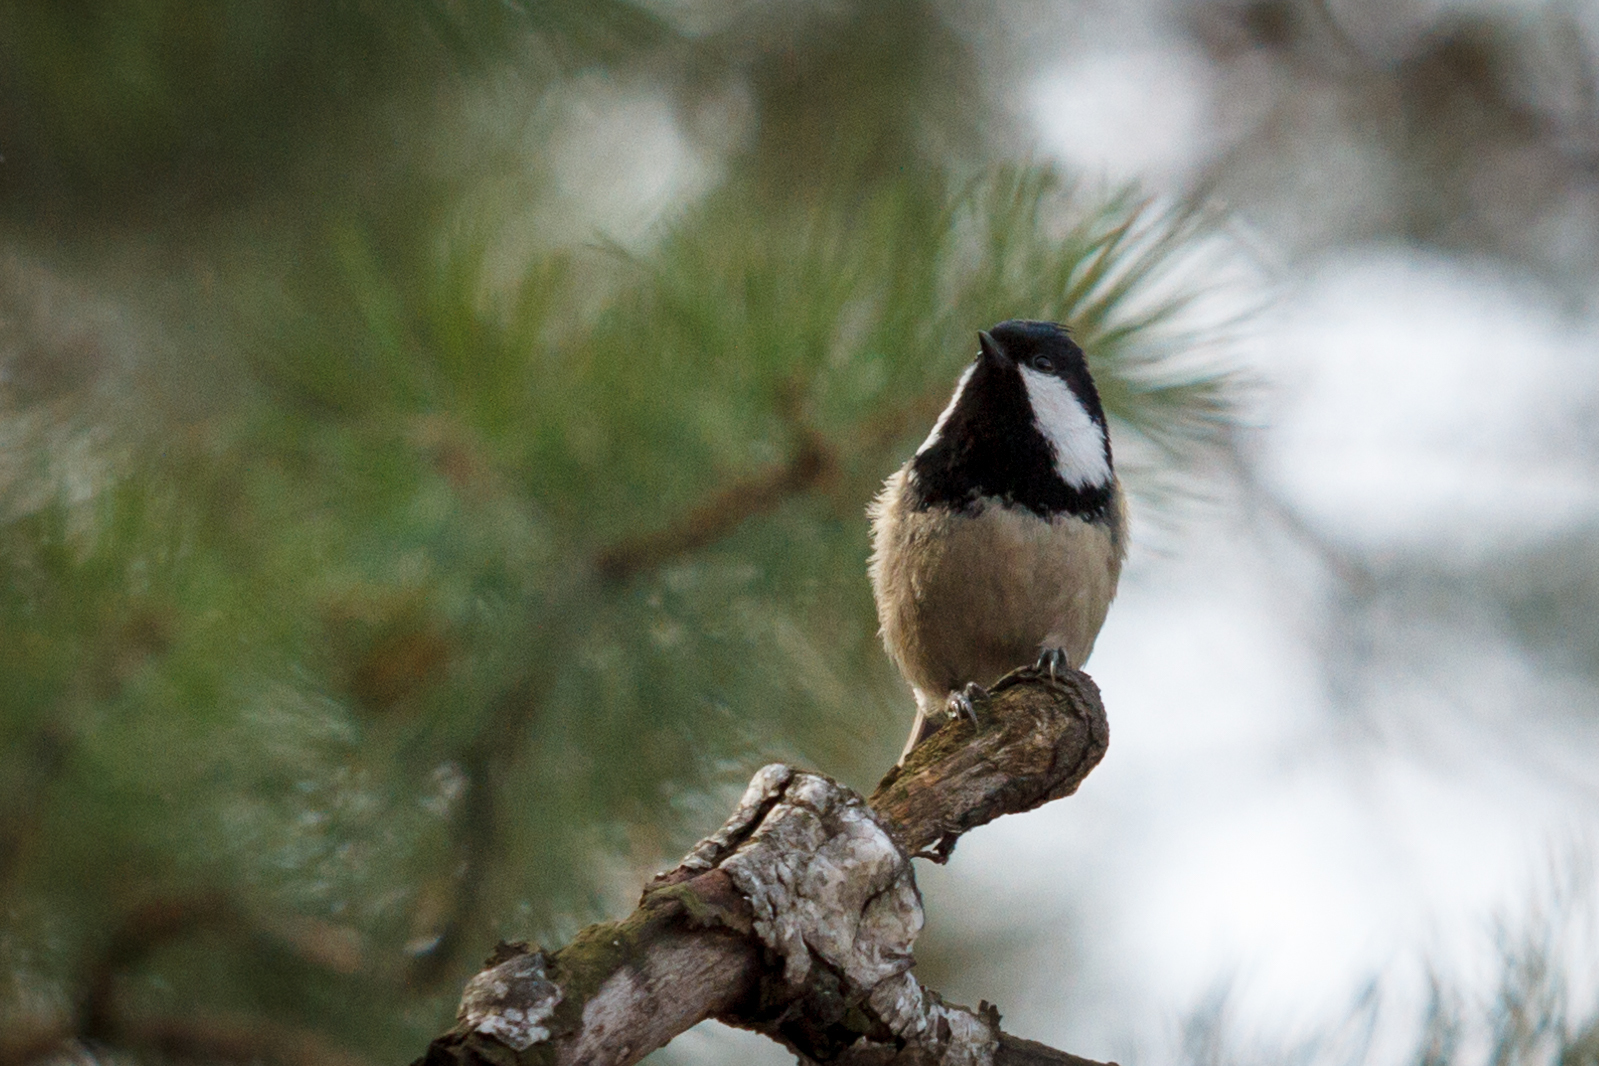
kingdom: Animalia
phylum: Chordata
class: Aves
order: Passeriformes
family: Paridae
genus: Periparus
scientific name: Periparus ater
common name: Coal tit
